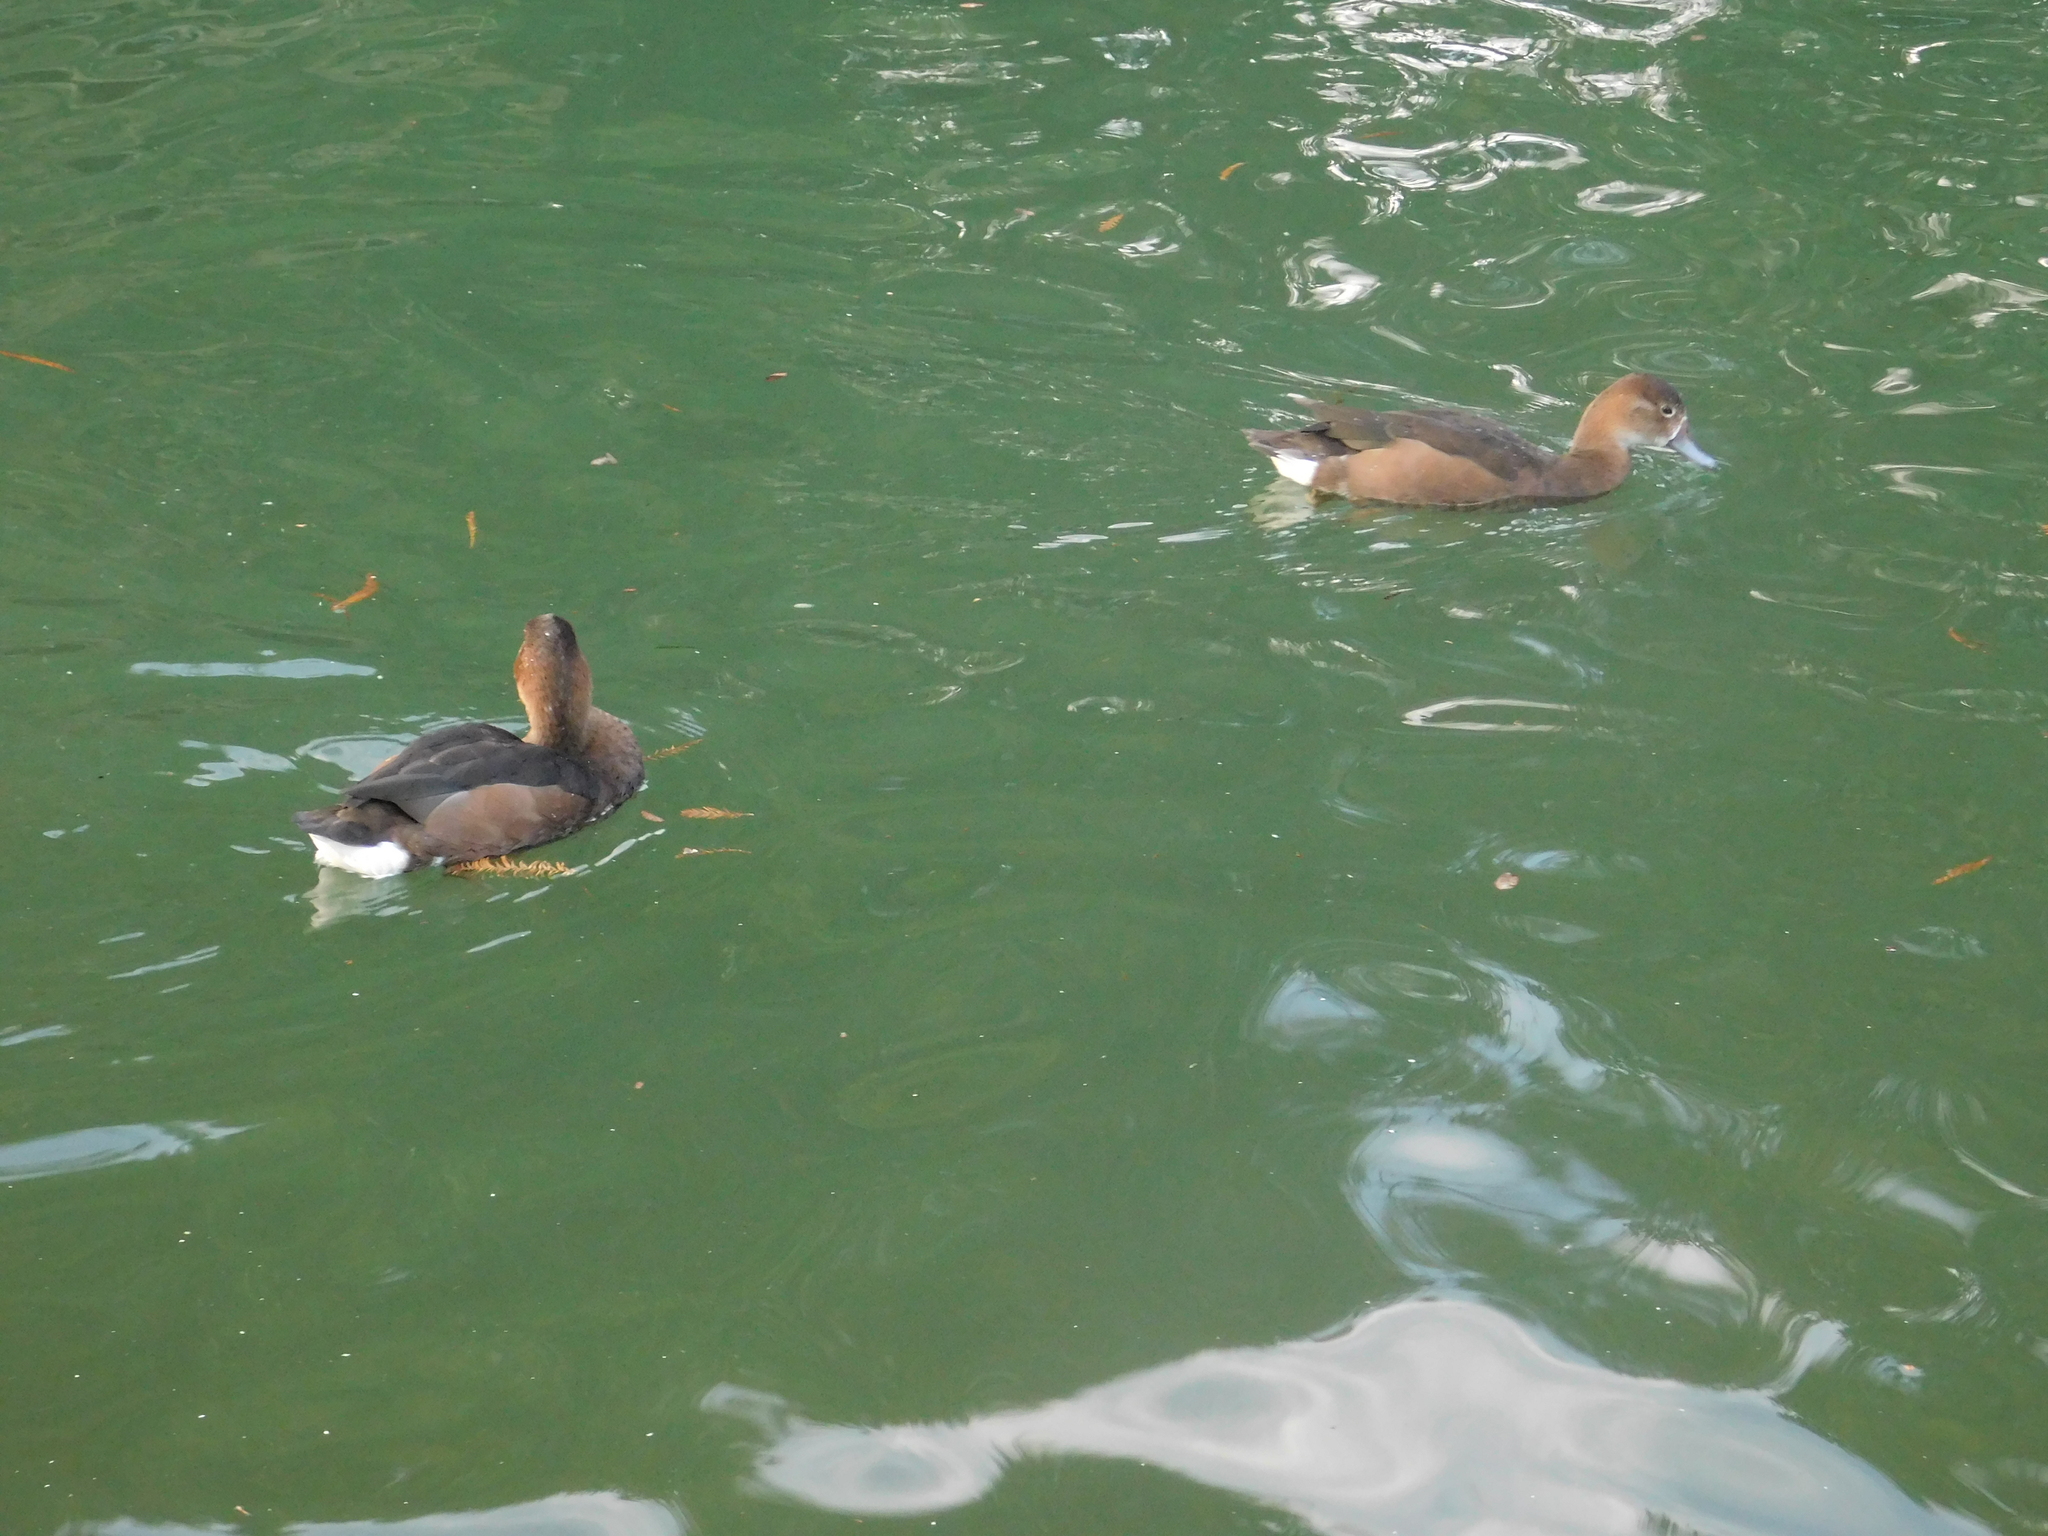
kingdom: Animalia
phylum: Chordata
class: Aves
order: Anseriformes
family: Anatidae
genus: Netta
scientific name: Netta peposaca
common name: Rosy-billed pochard
